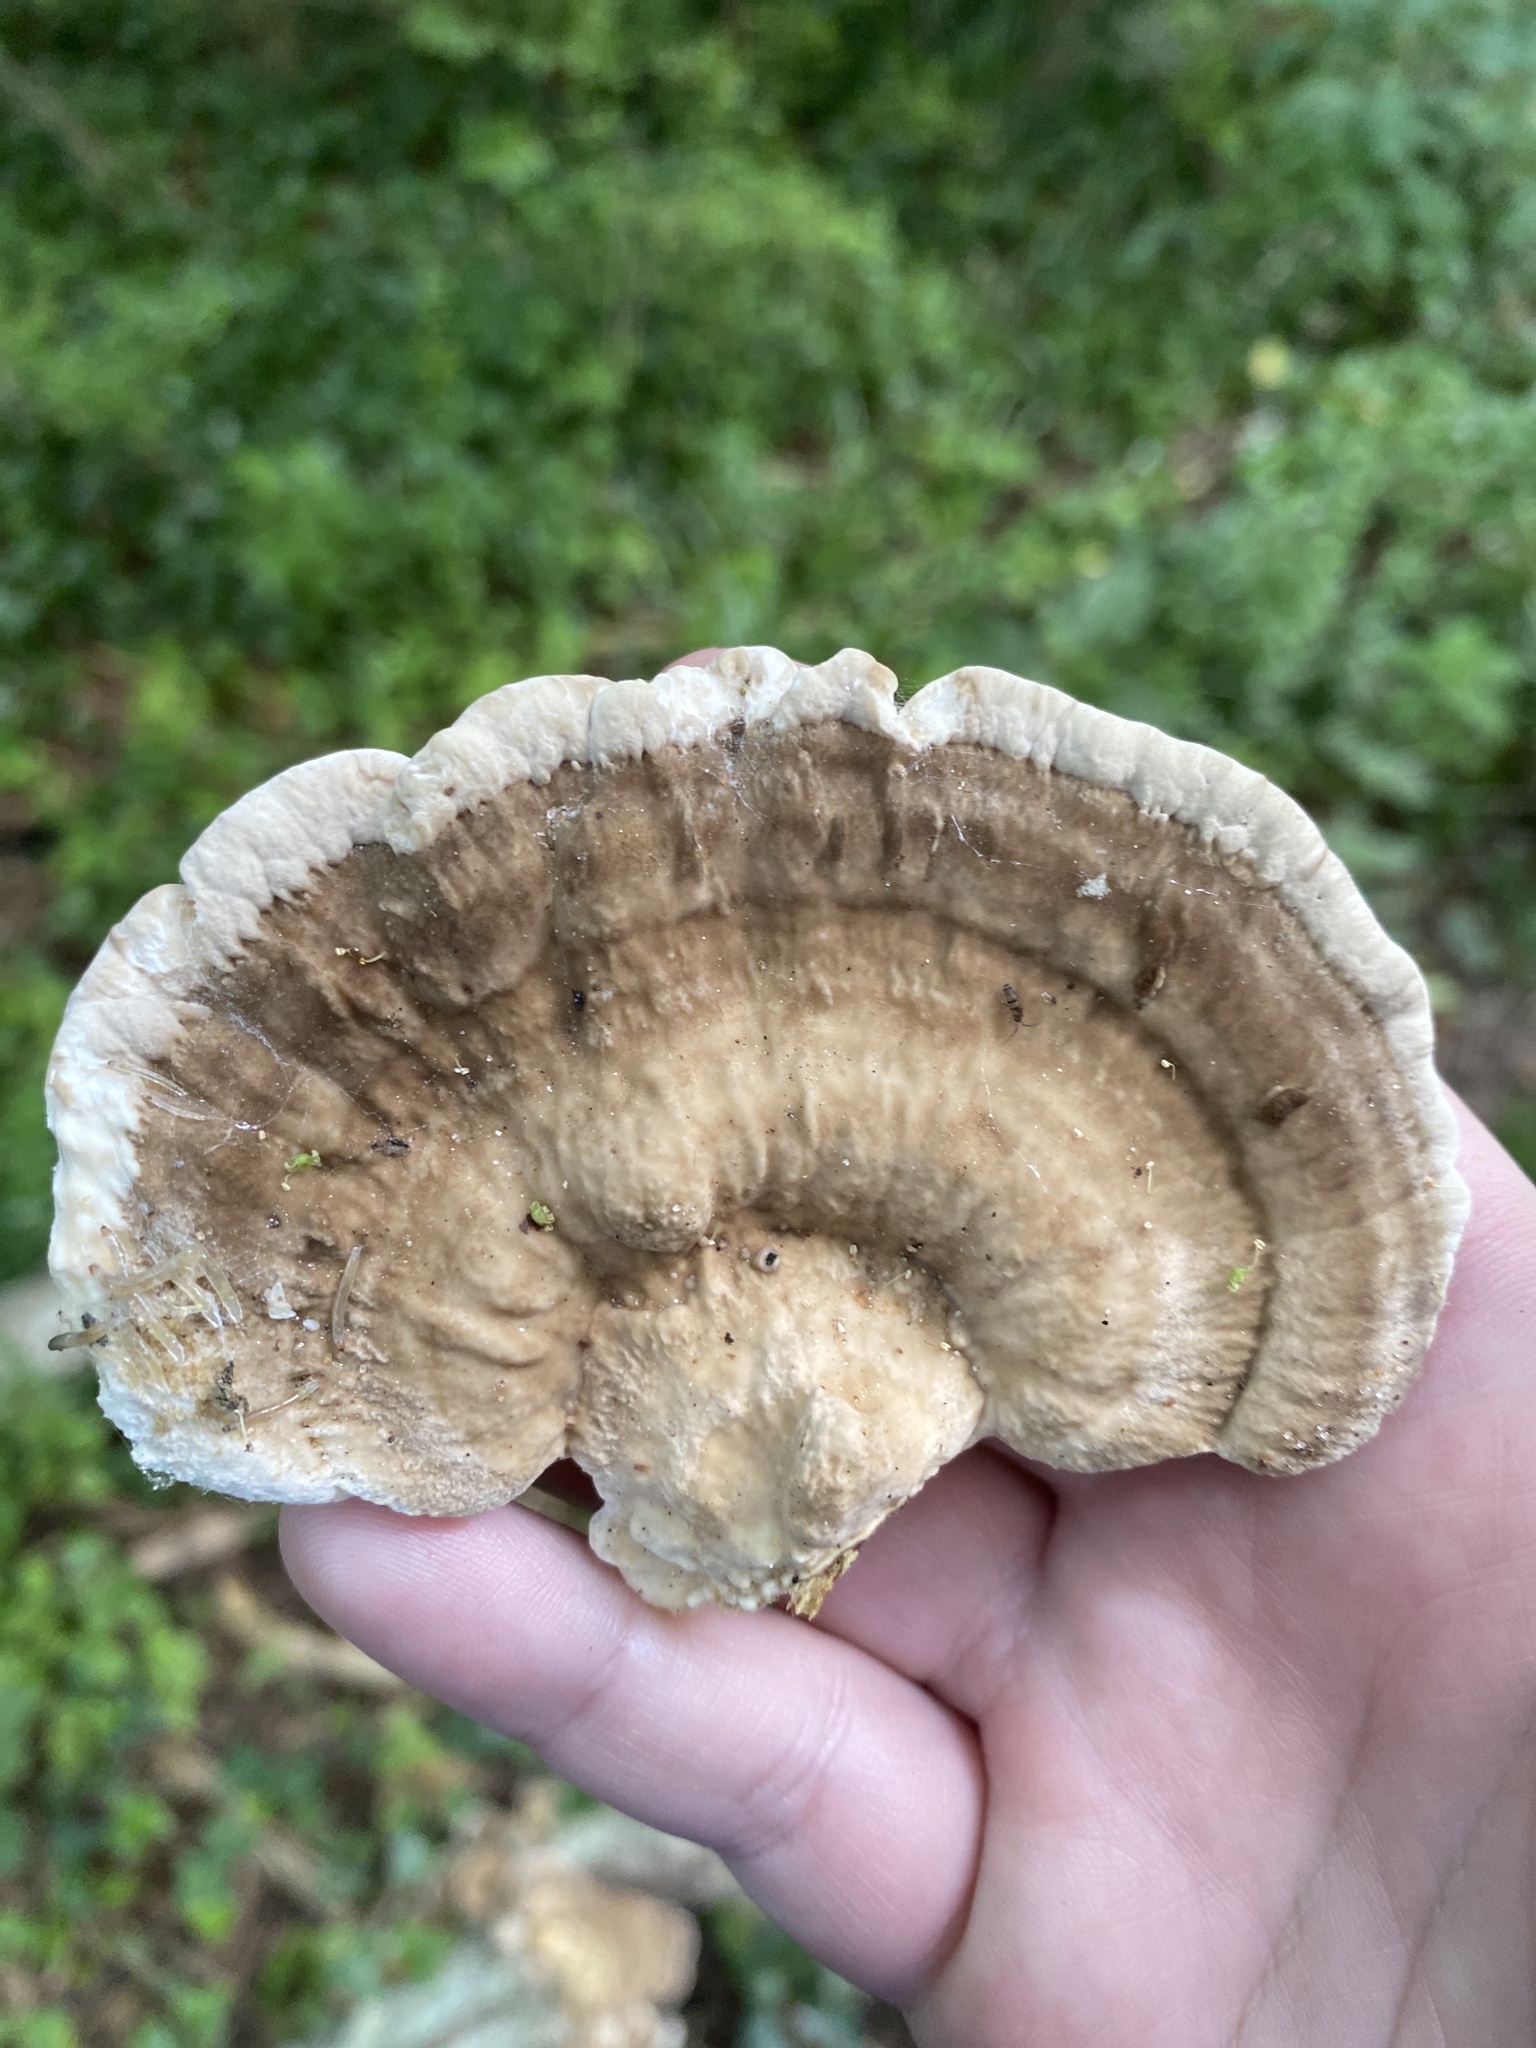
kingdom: Fungi
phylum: Basidiomycota
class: Agaricomycetes
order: Polyporales
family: Polyporaceae
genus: Trametes
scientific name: Trametes lactinea
